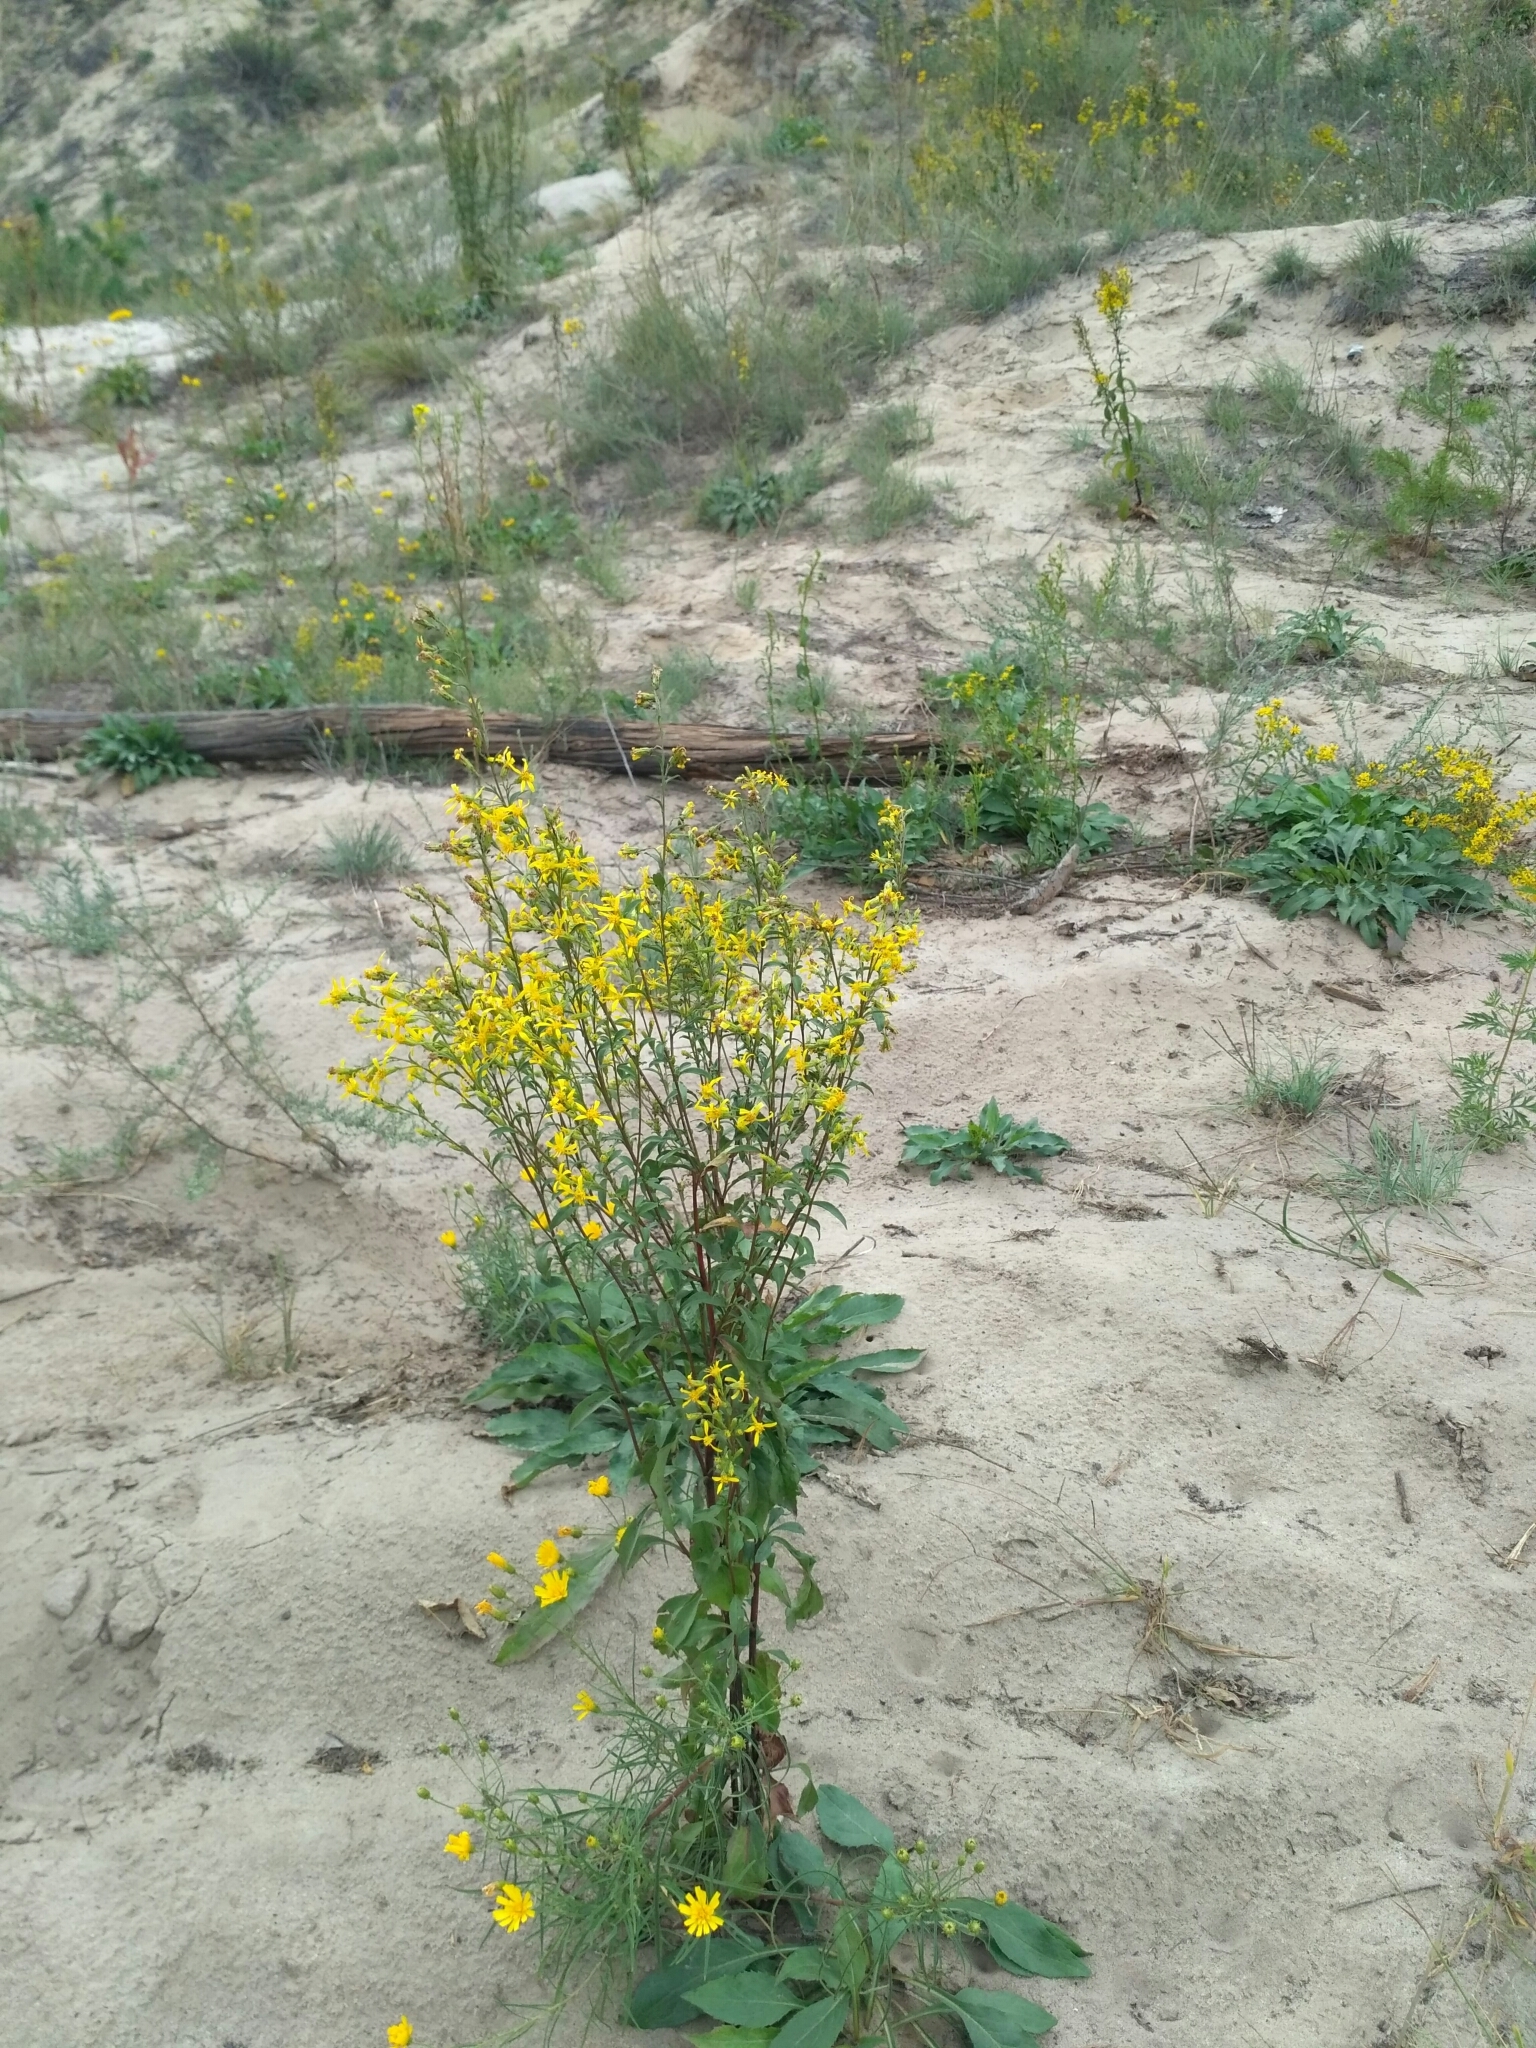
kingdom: Plantae
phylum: Tracheophyta
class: Magnoliopsida
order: Asterales
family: Asteraceae
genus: Solidago
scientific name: Solidago virgaurea
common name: Goldenrod
